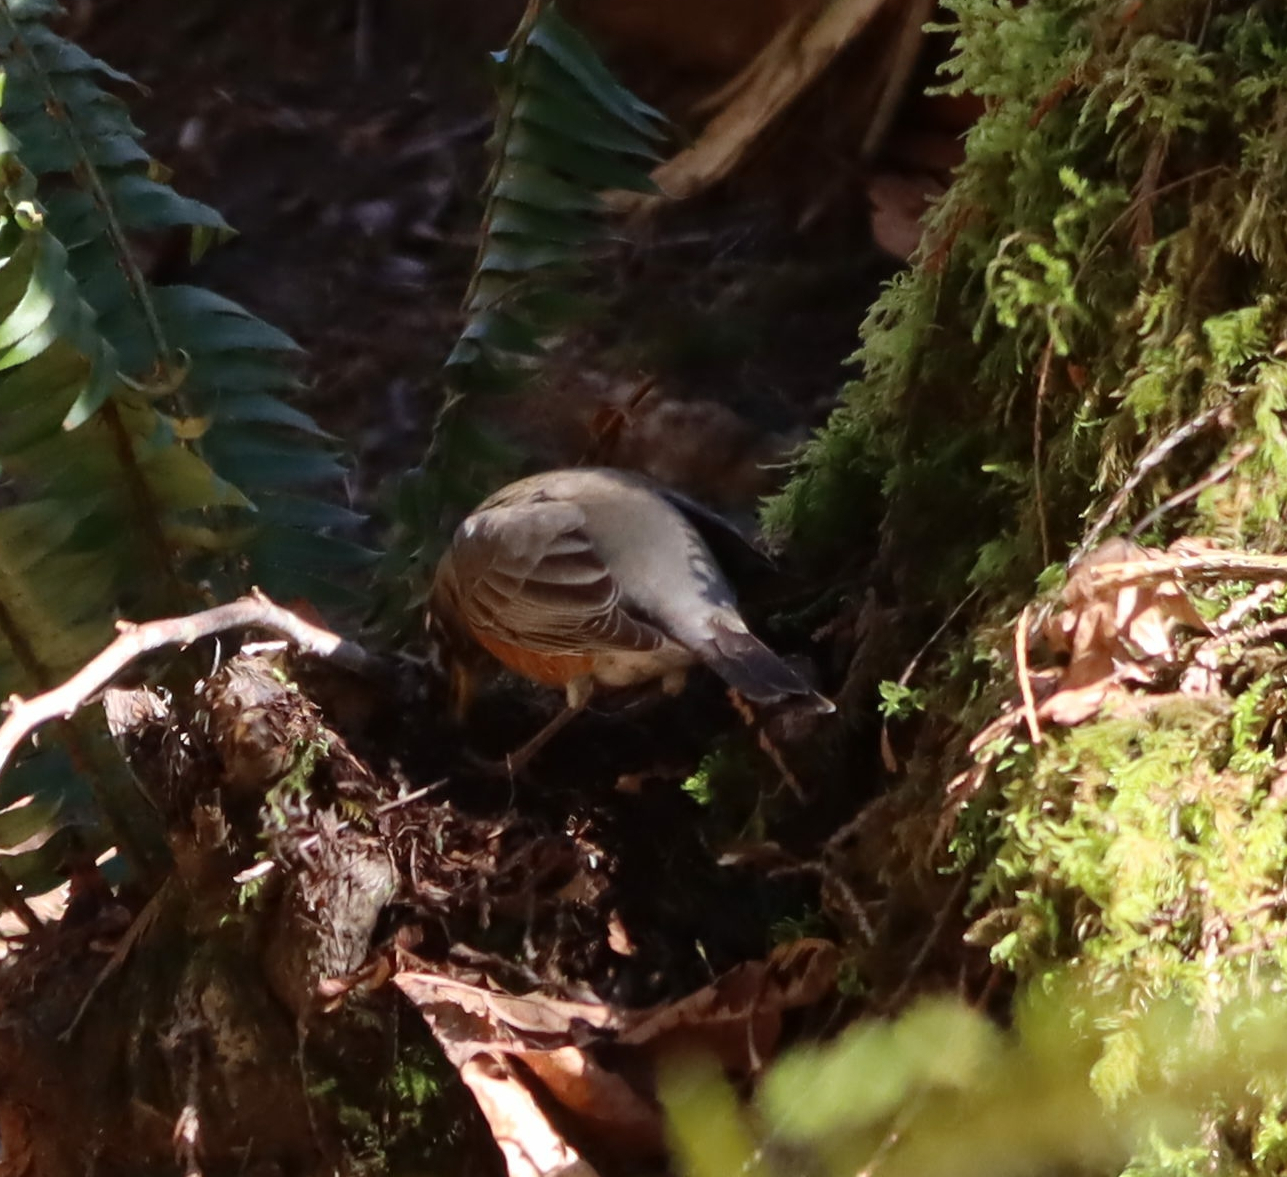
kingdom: Animalia
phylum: Chordata
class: Aves
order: Passeriformes
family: Turdidae
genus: Turdus
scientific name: Turdus migratorius
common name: American robin
